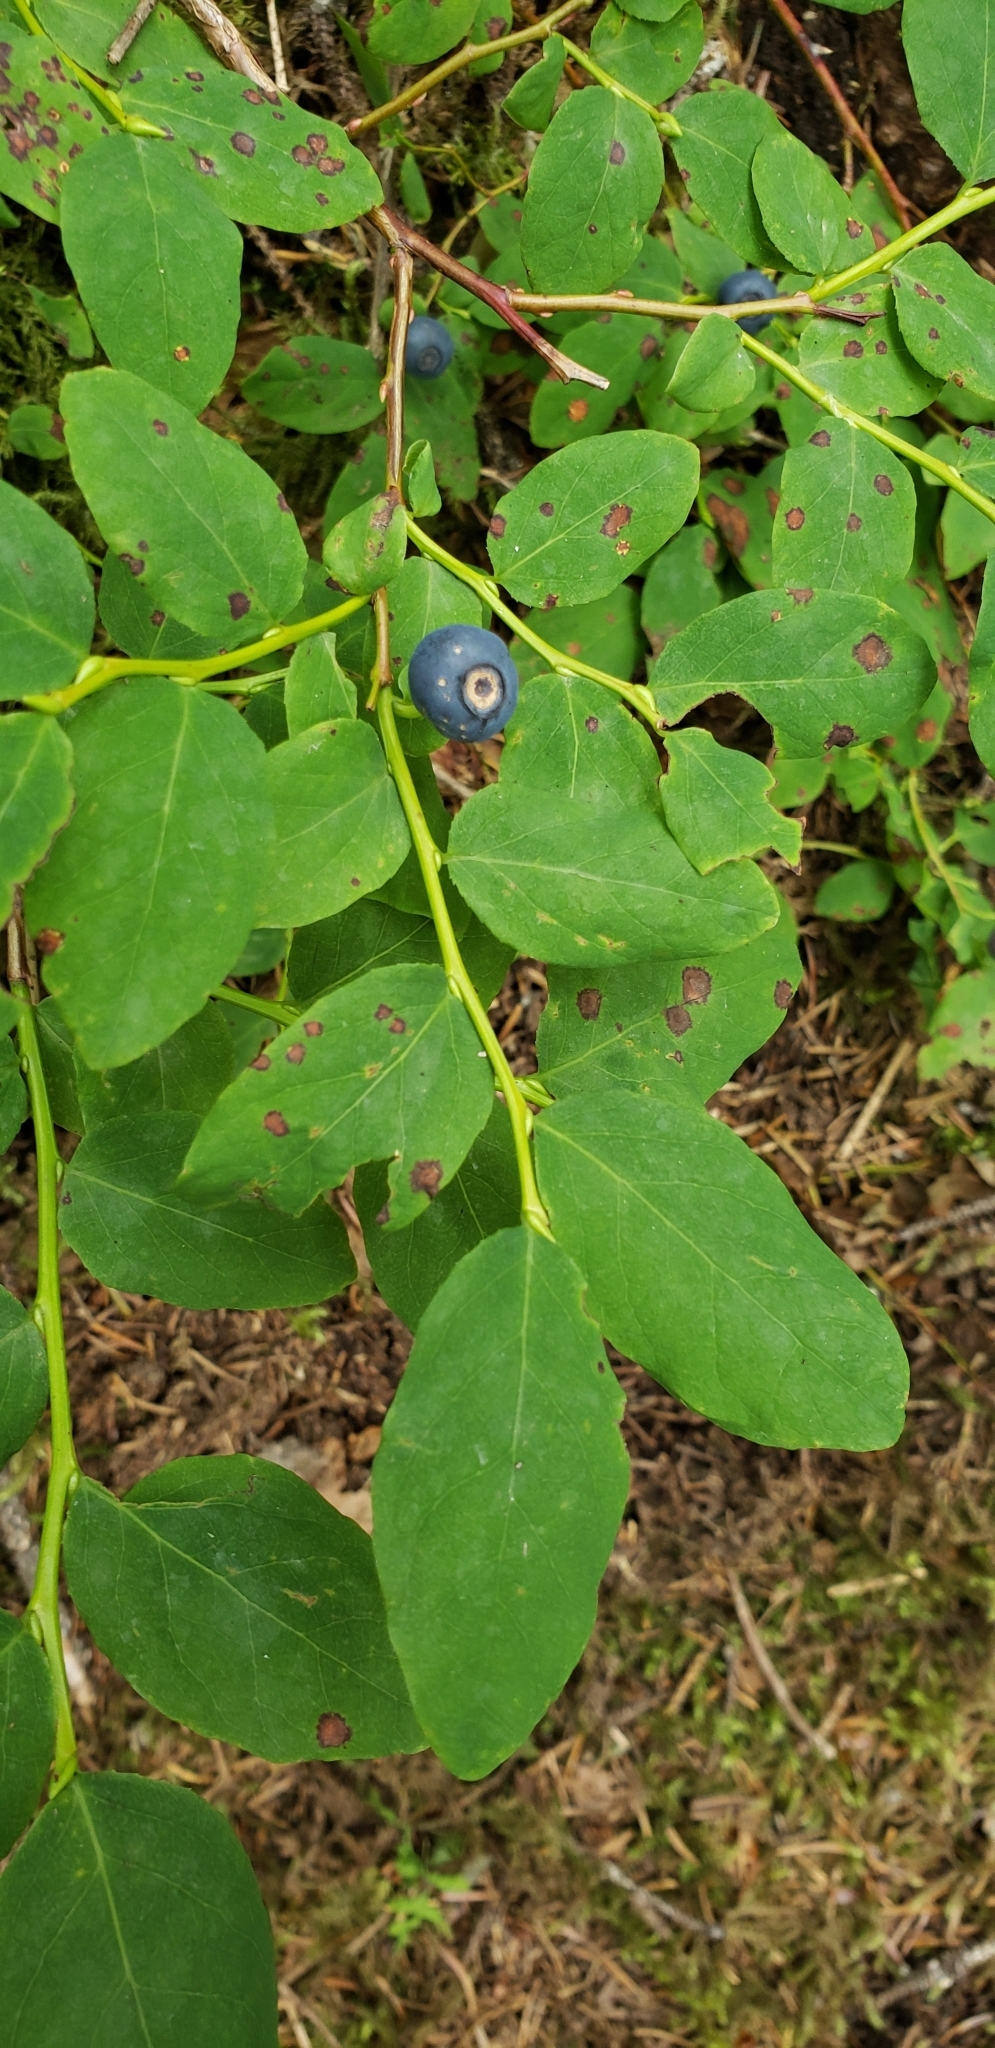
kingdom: Plantae
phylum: Tracheophyta
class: Magnoliopsida
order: Ericales
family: Ericaceae
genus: Vaccinium
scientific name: Vaccinium ovalifolium
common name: Early blueberry
